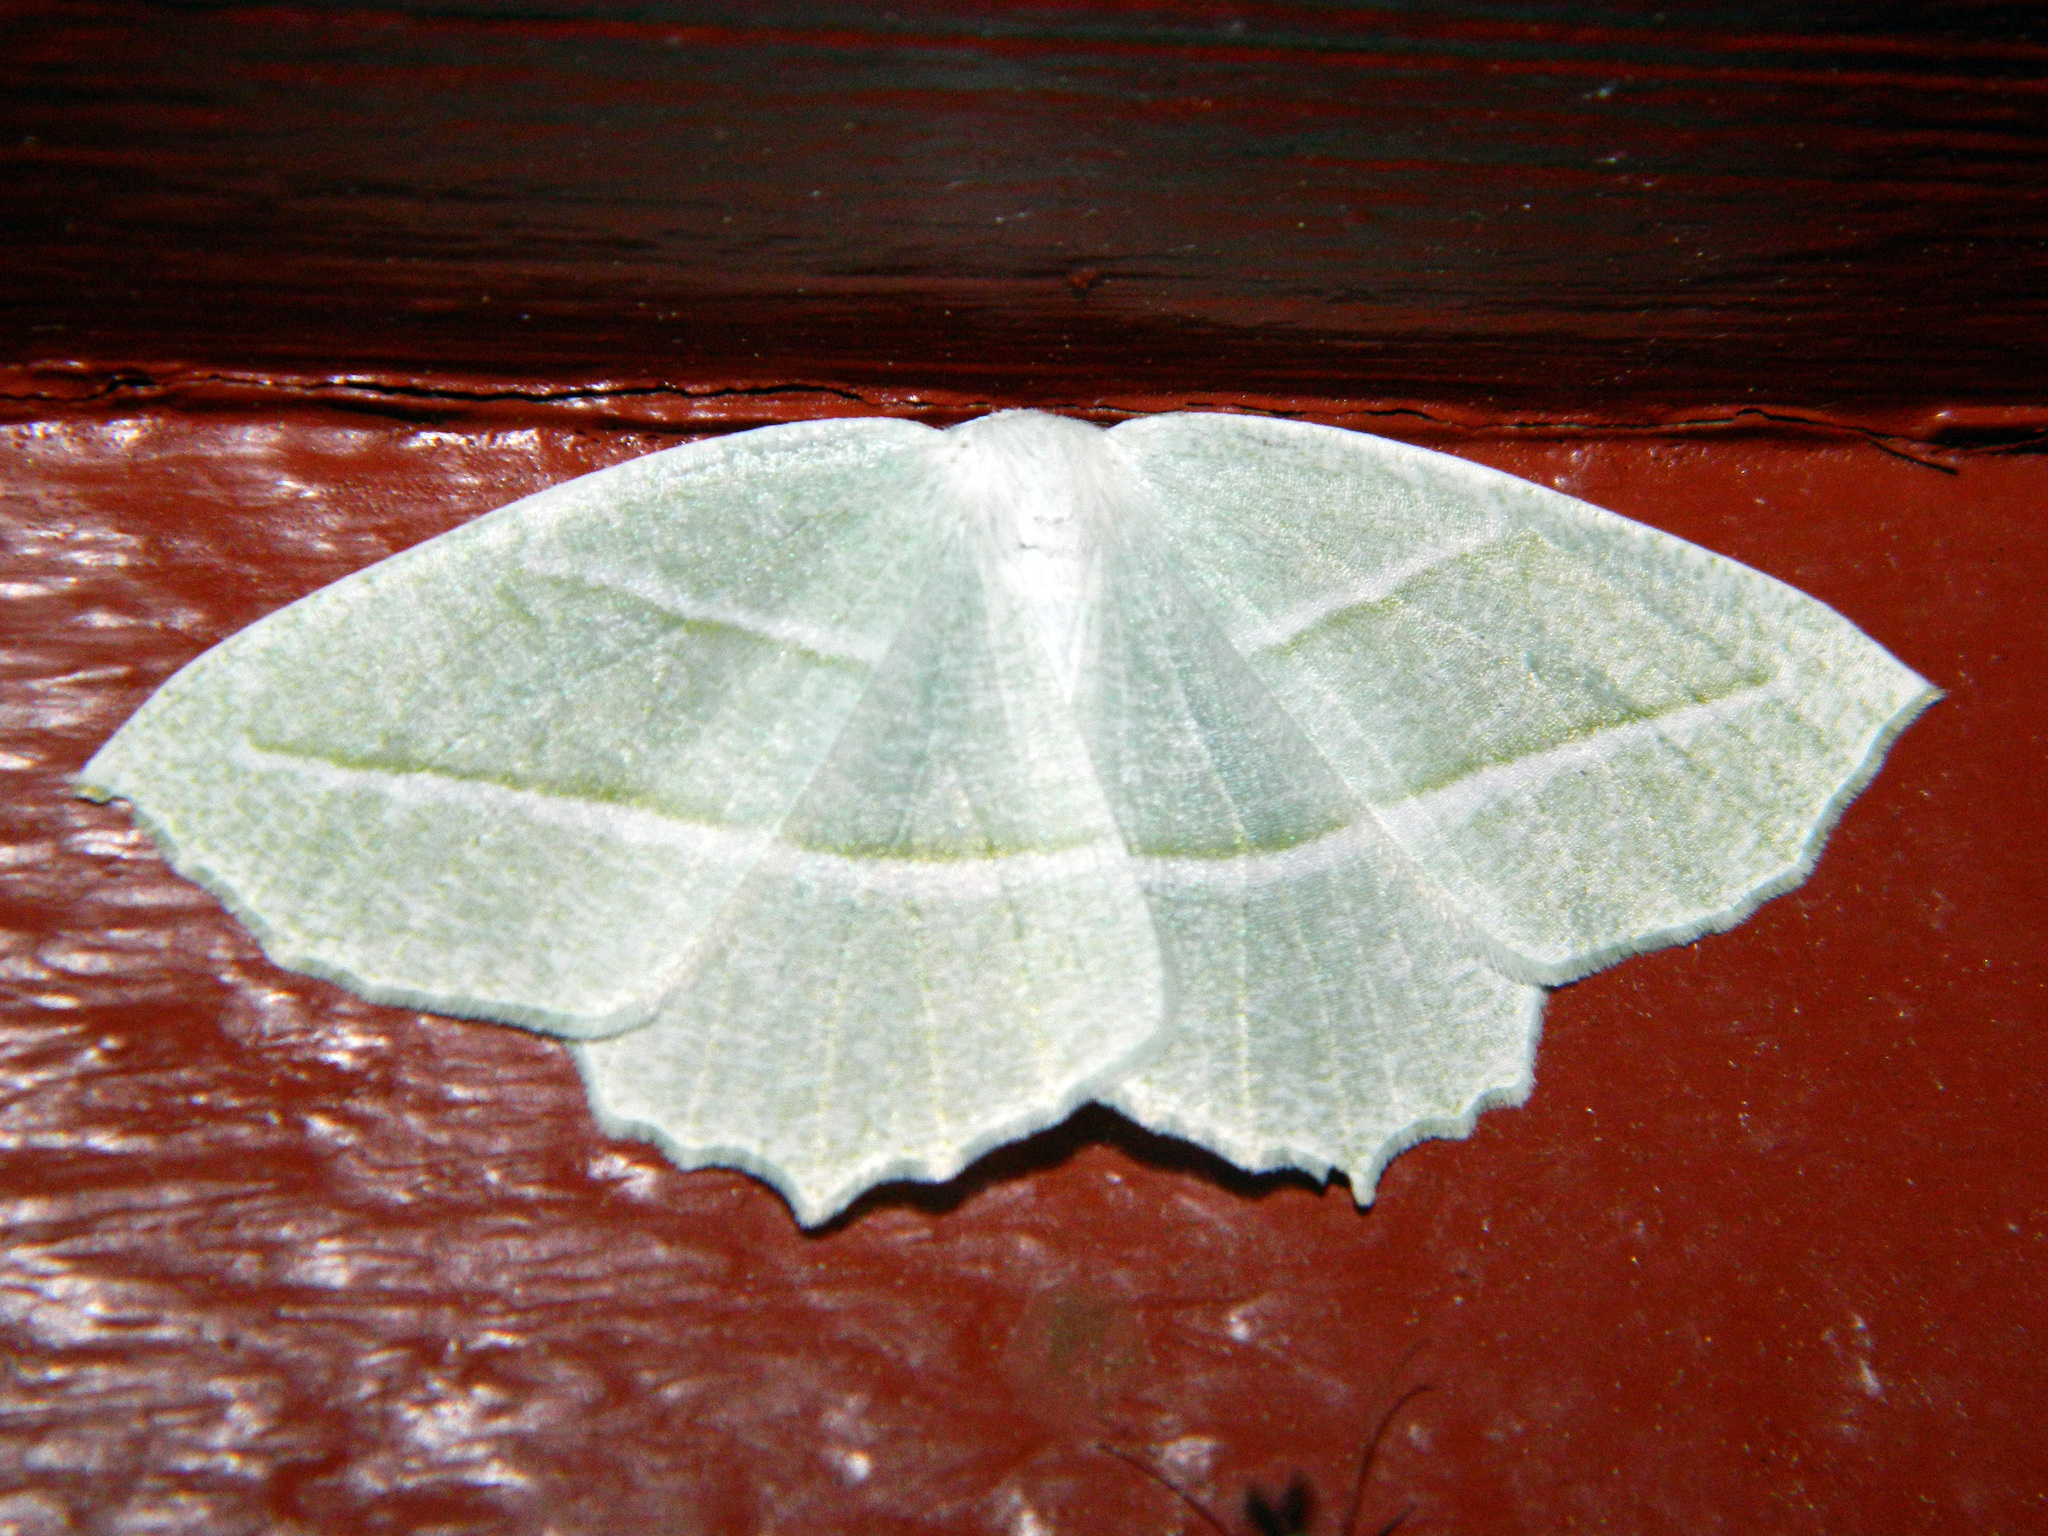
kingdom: Animalia
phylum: Arthropoda
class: Insecta
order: Lepidoptera
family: Geometridae
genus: Campaea
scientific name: Campaea perlata
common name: Fringed looper
